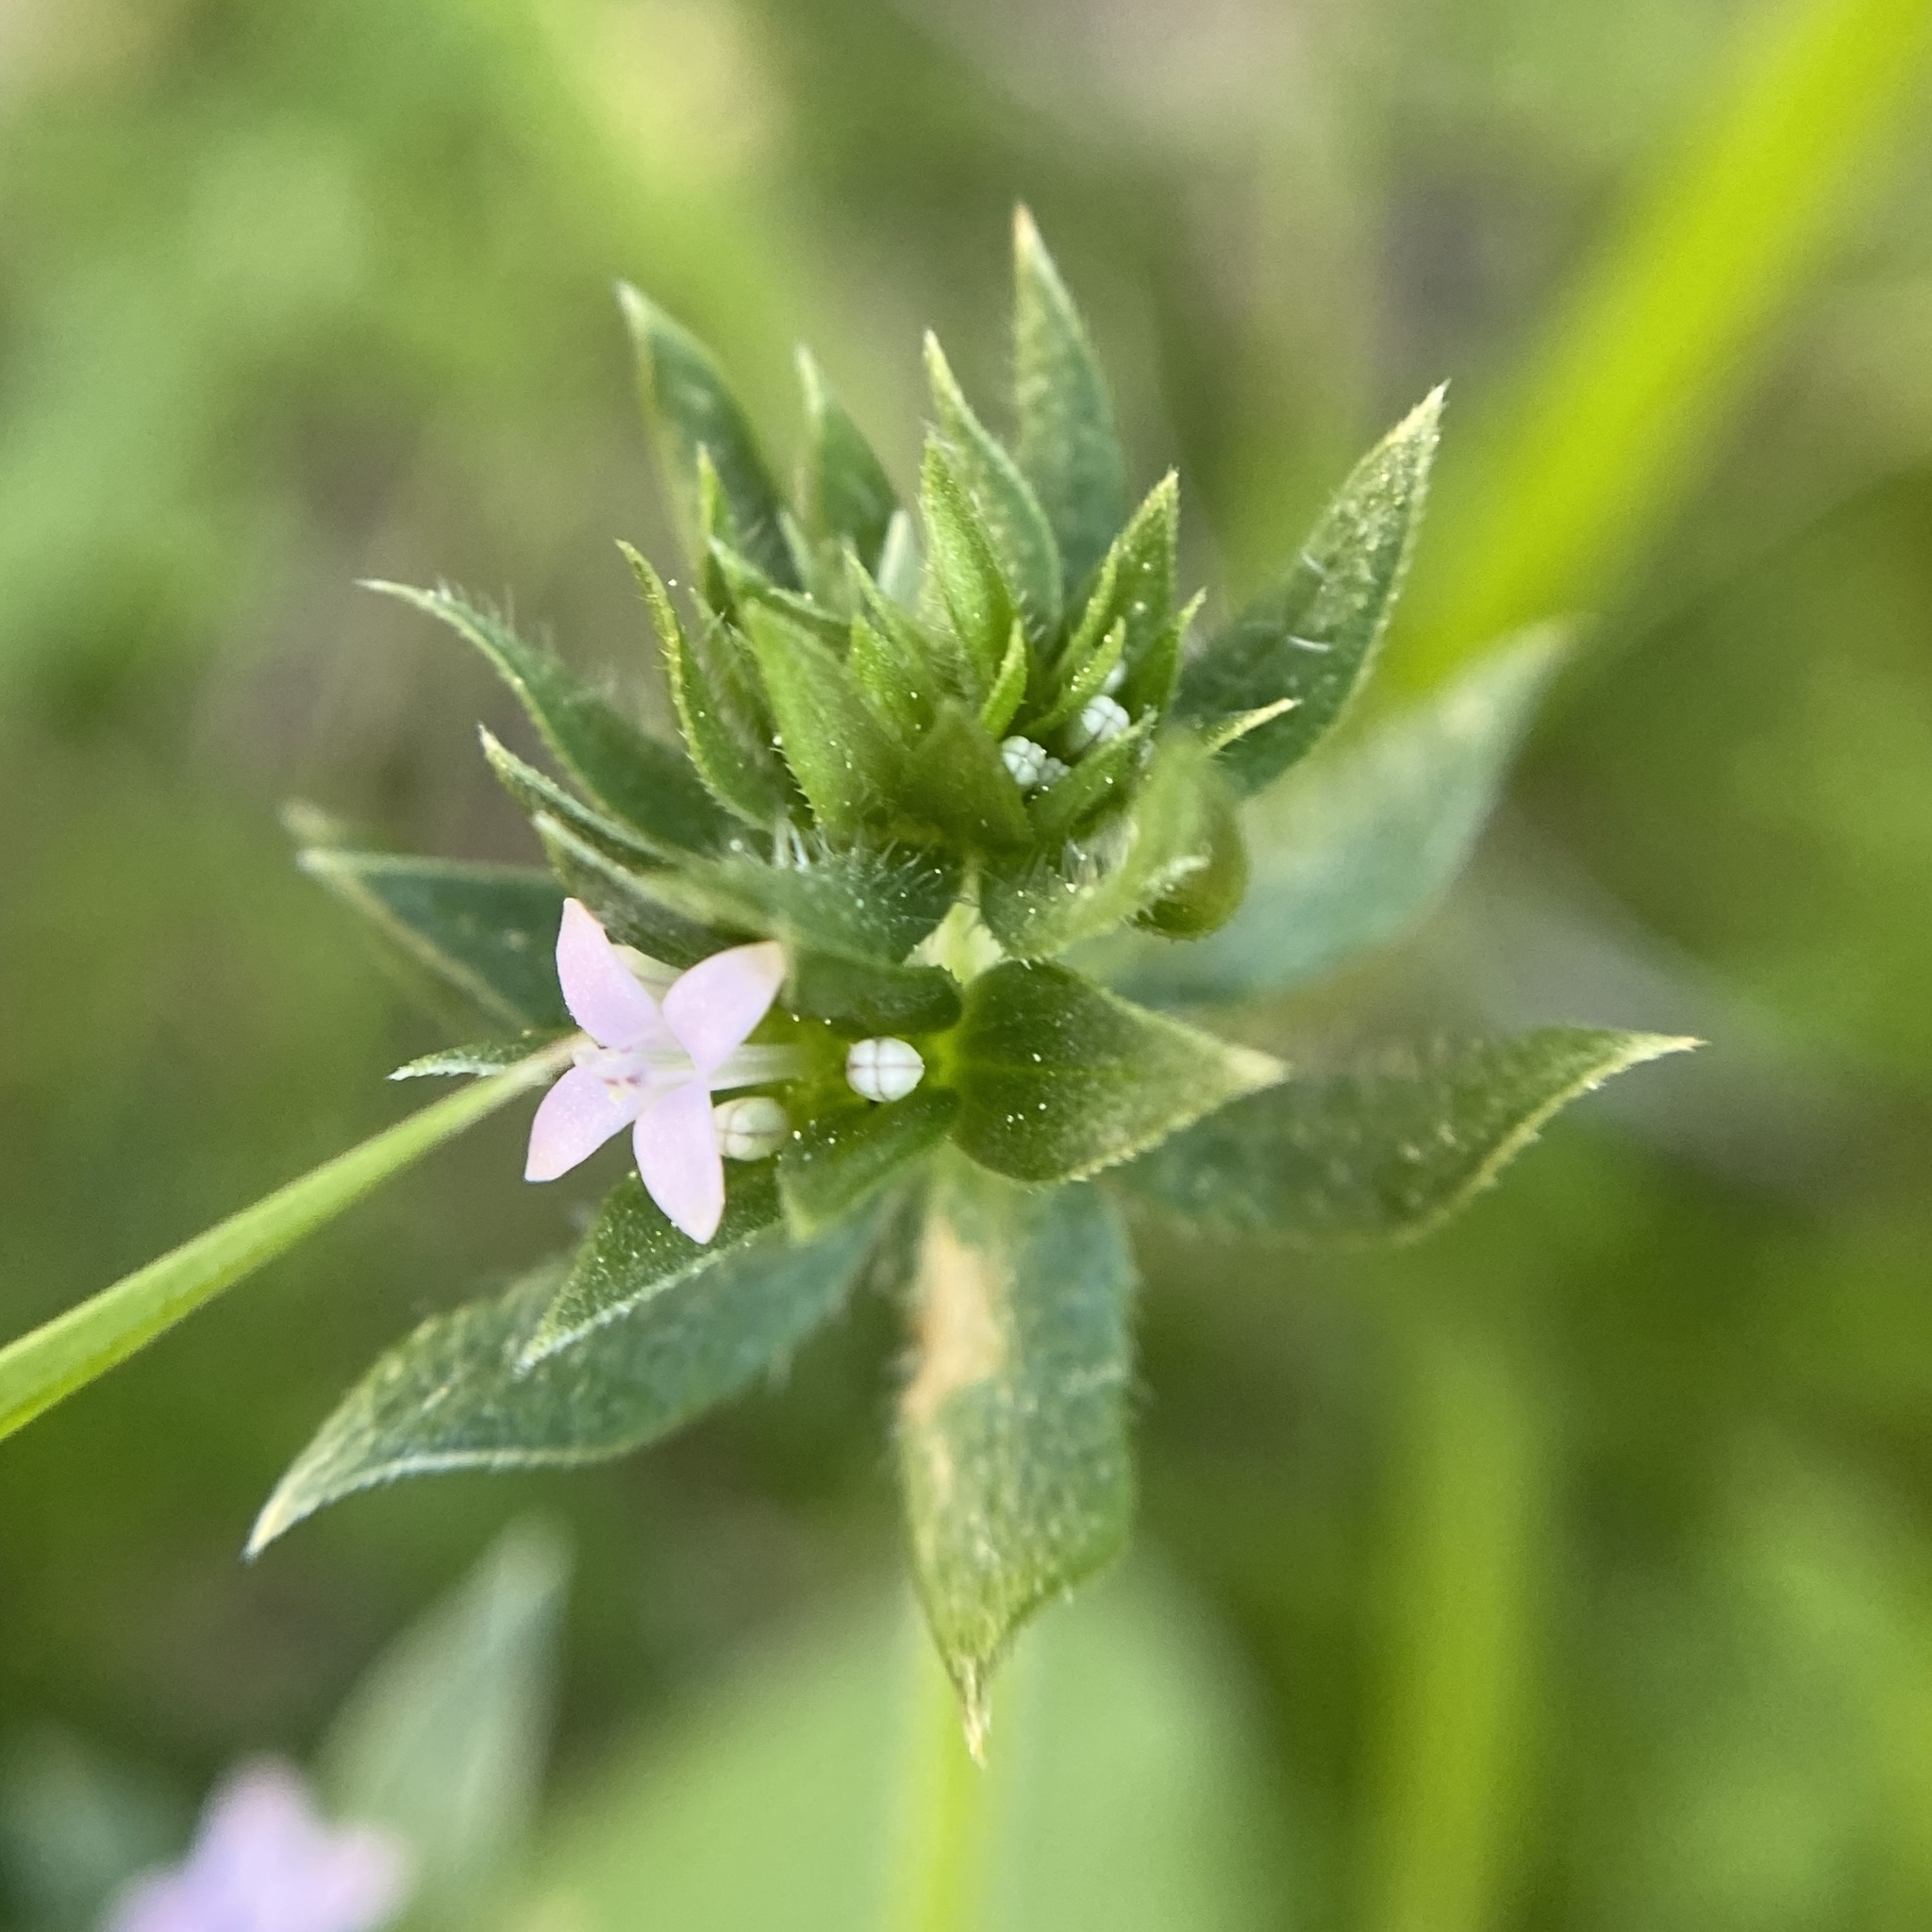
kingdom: Plantae
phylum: Tracheophyta
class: Magnoliopsida
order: Gentianales
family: Rubiaceae
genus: Sherardia
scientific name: Sherardia arvensis
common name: Field madder
